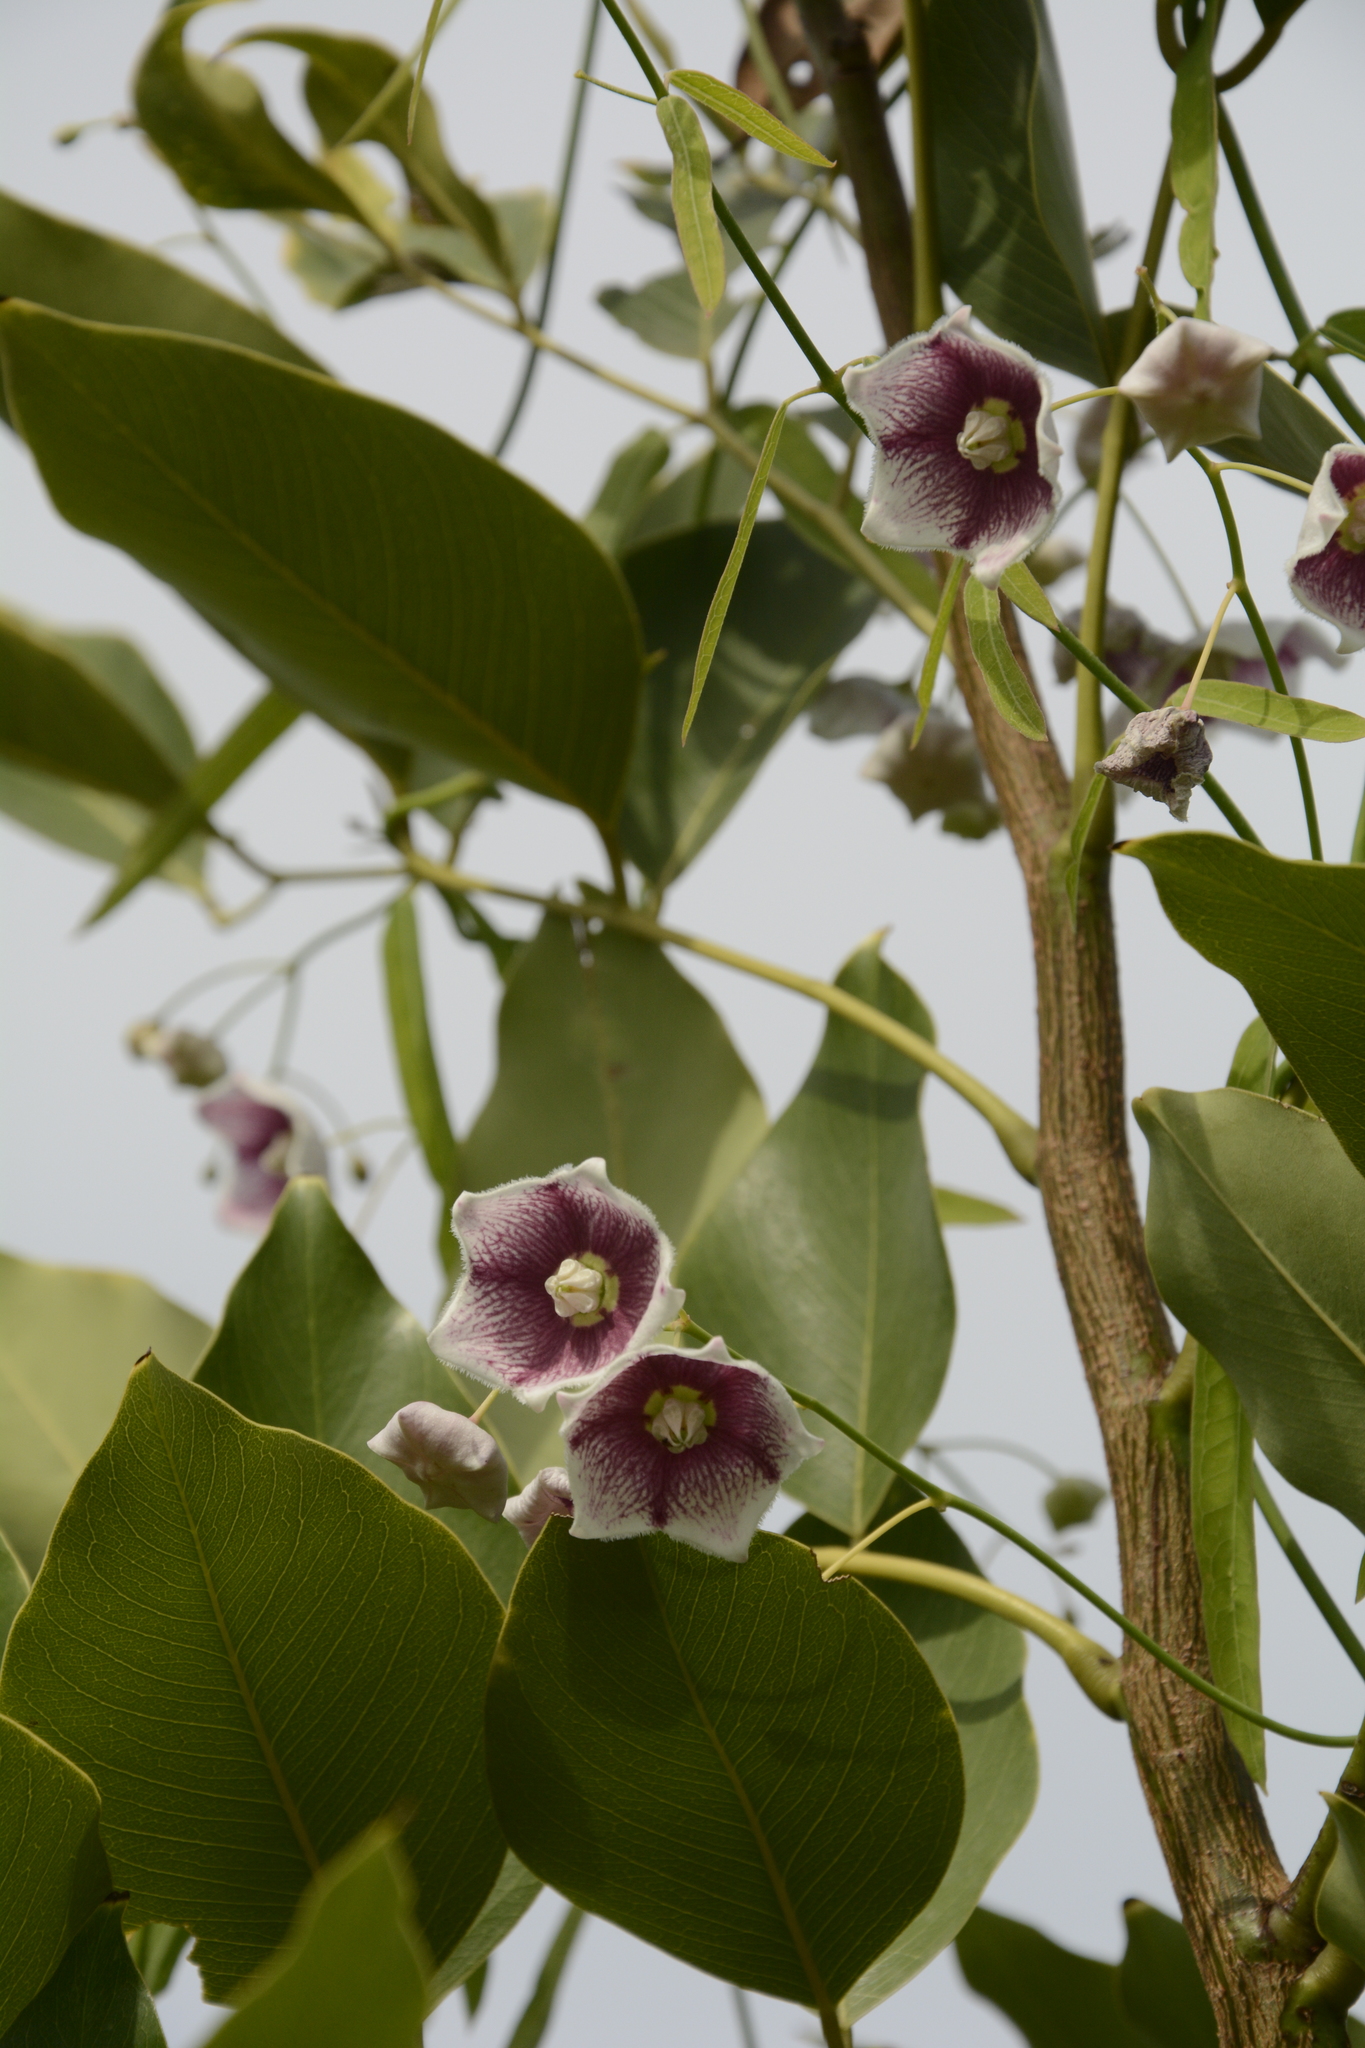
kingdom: Plantae
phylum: Tracheophyta
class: Magnoliopsida
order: Gentianales
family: Apocynaceae
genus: Oxystelma
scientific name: Oxystelma wallichii
